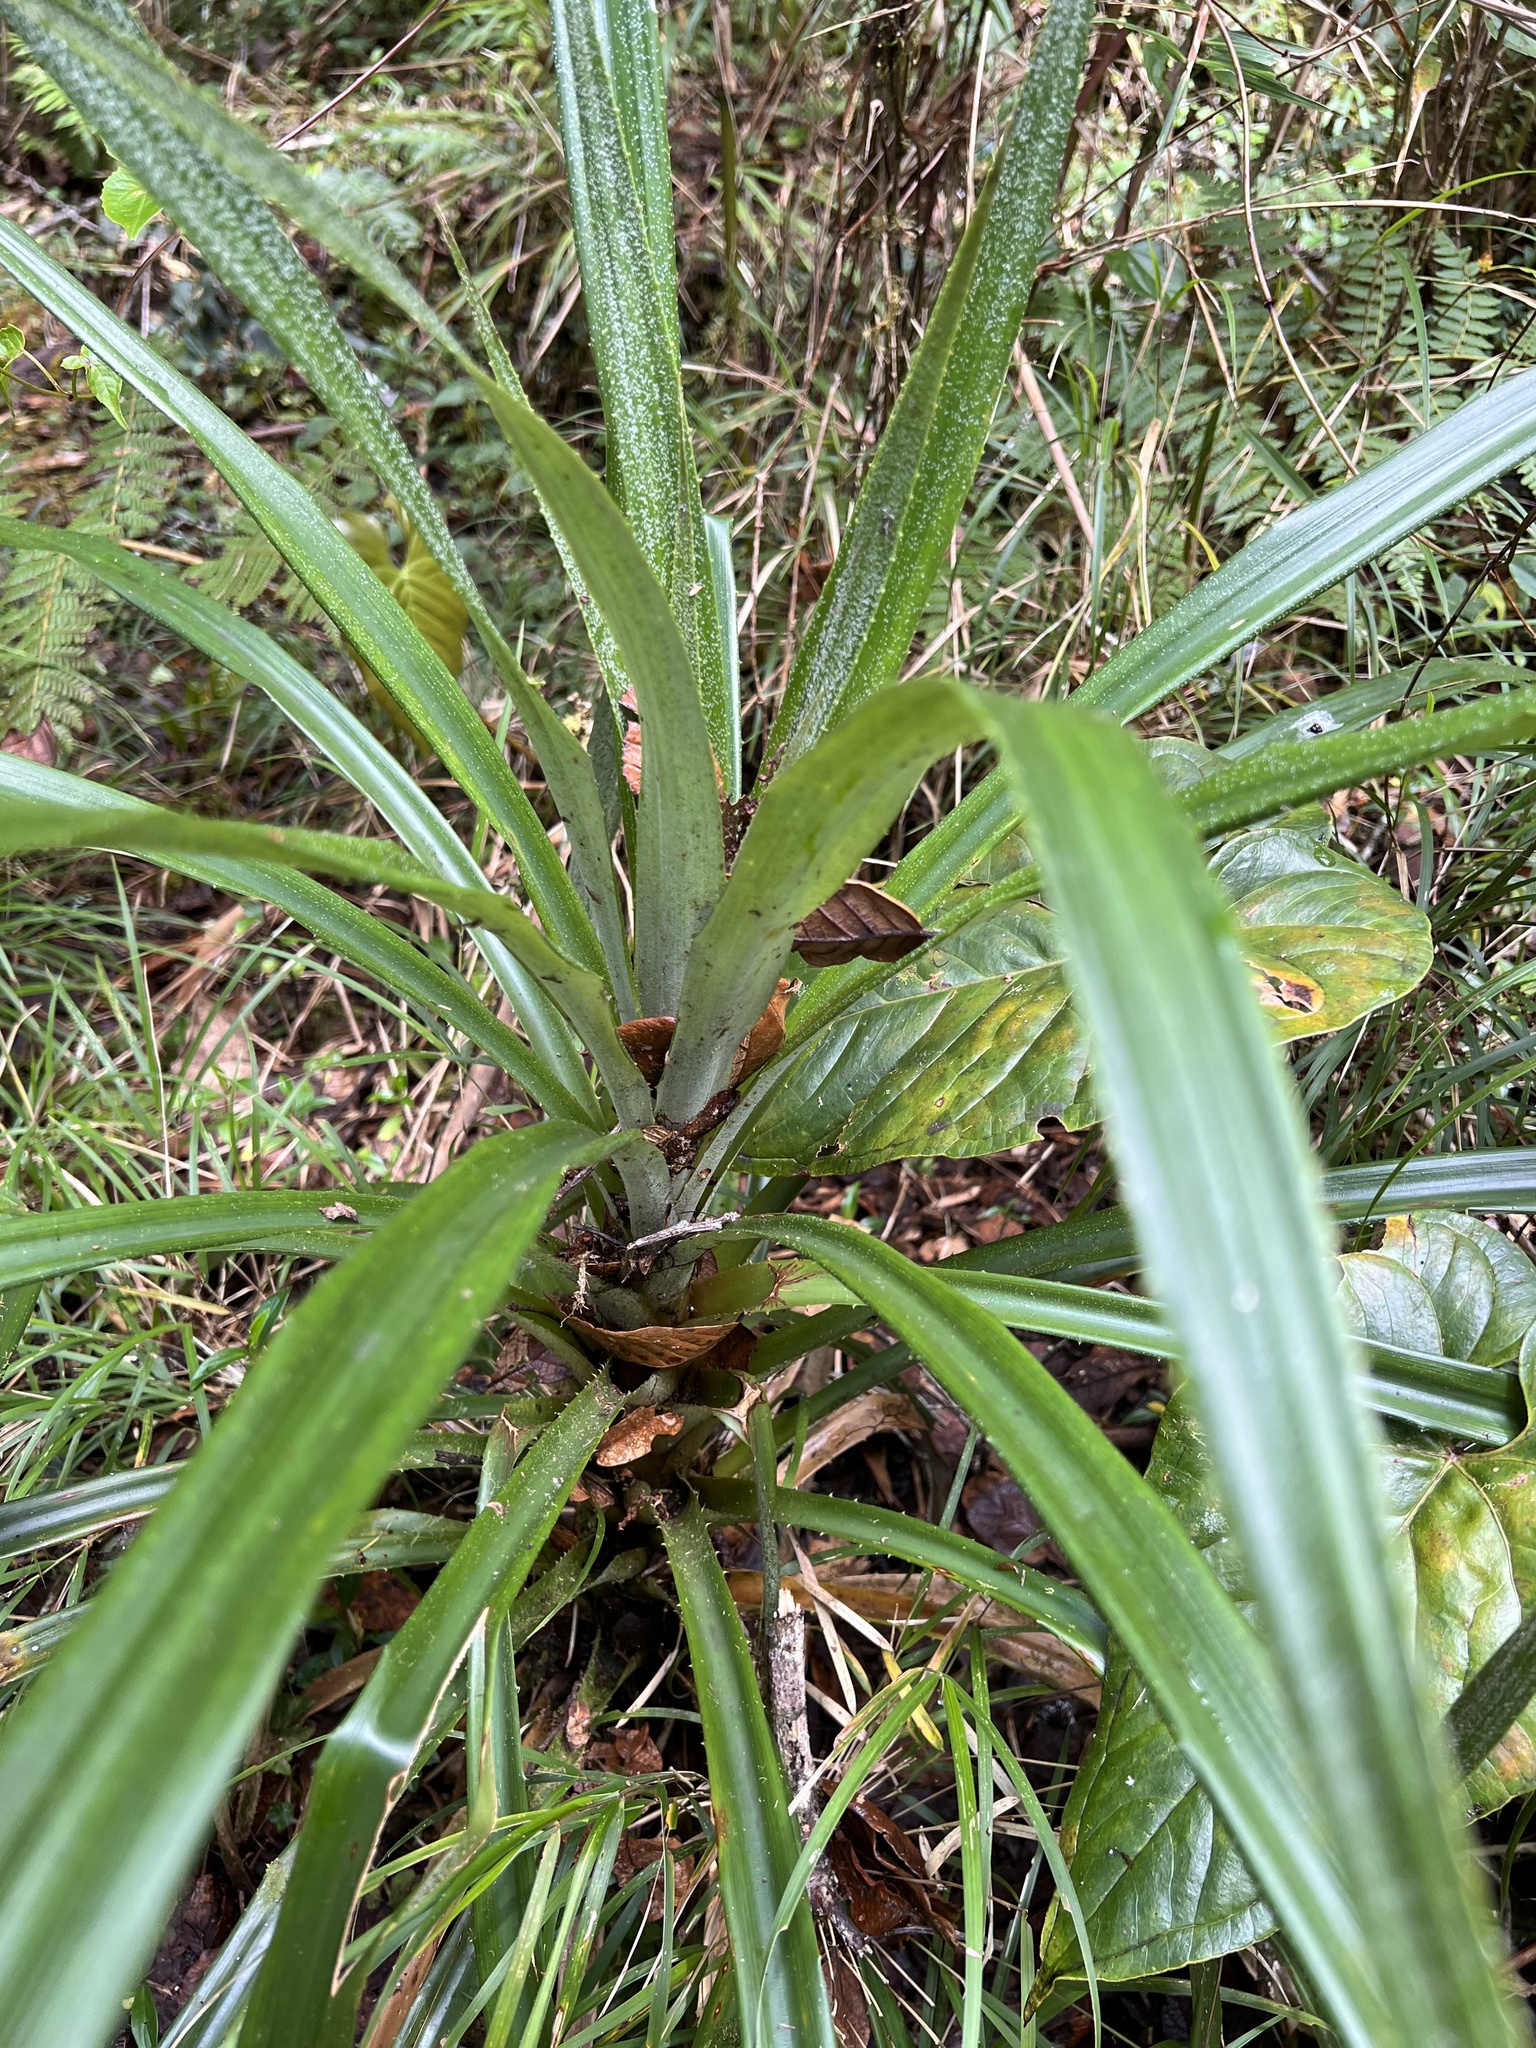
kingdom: Plantae
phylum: Tracheophyta
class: Liliopsida
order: Poales
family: Bromeliaceae
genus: Greigia
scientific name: Greigia sylvicola
